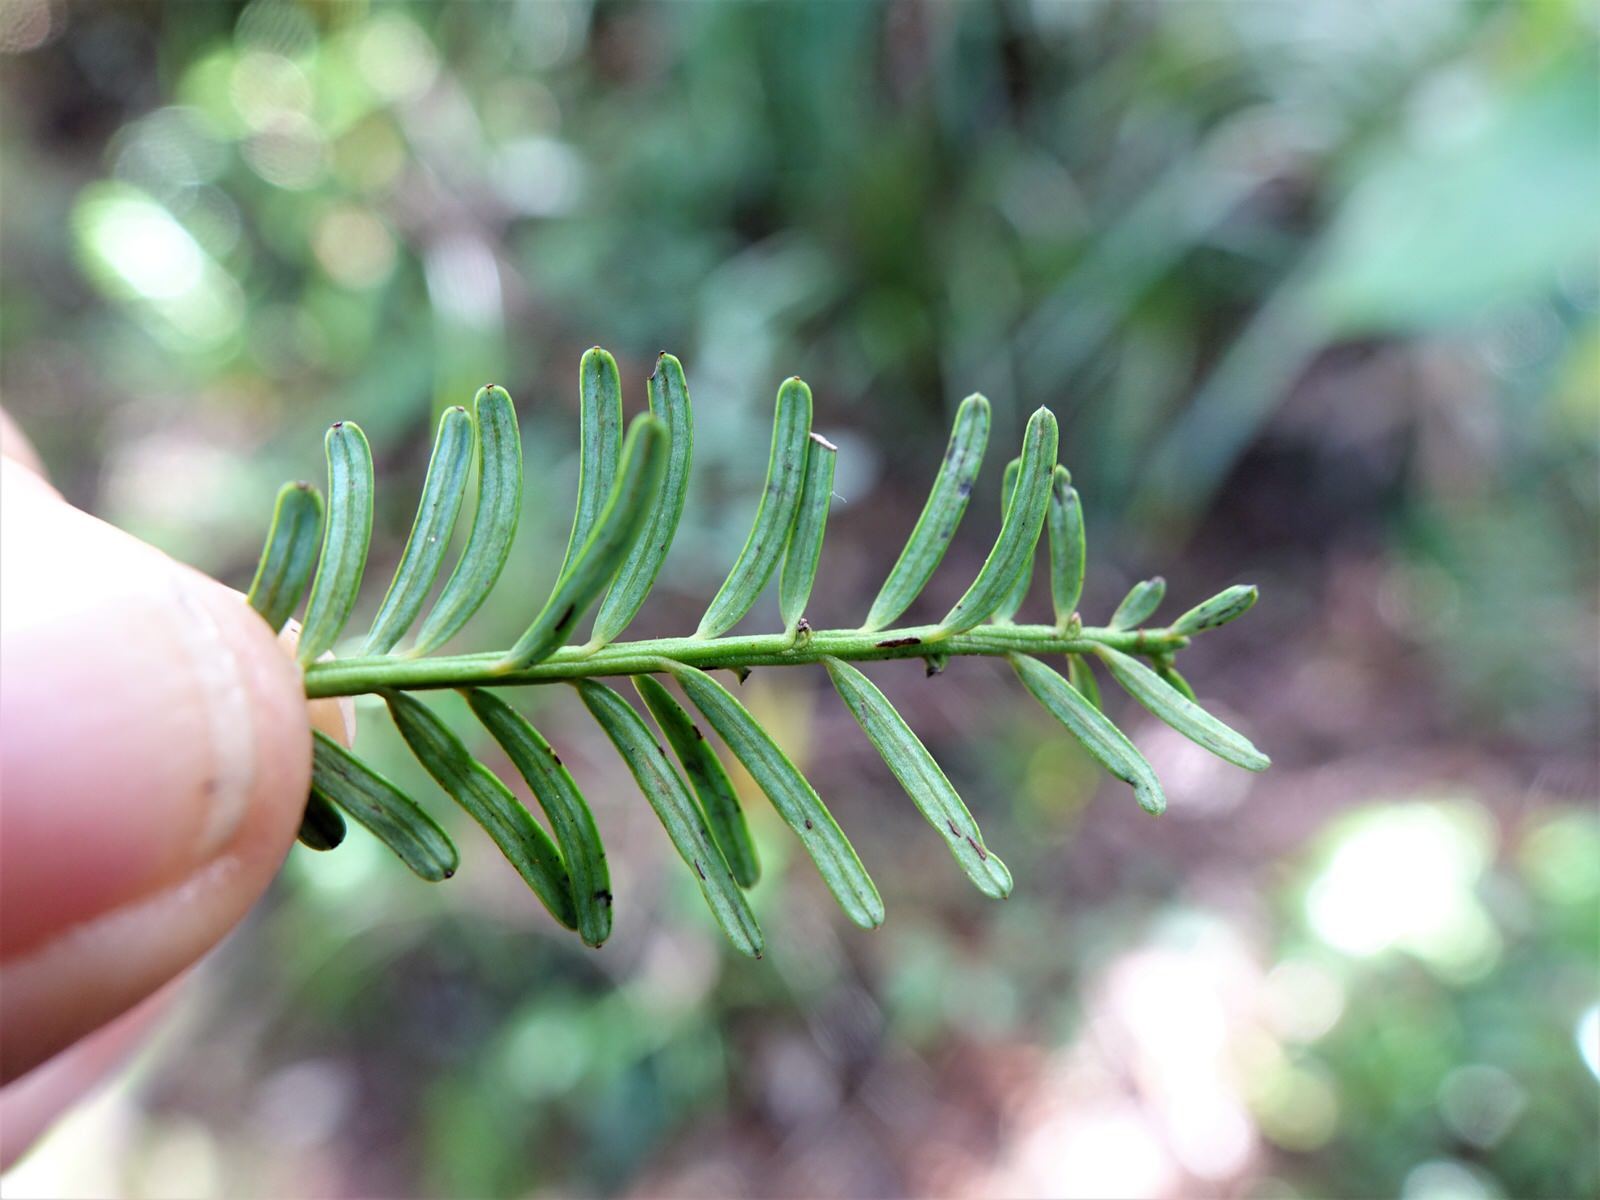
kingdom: Plantae
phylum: Tracheophyta
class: Pinopsida
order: Pinales
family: Podocarpaceae
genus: Prumnopitys
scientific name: Prumnopitys taxifolia
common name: Matai
